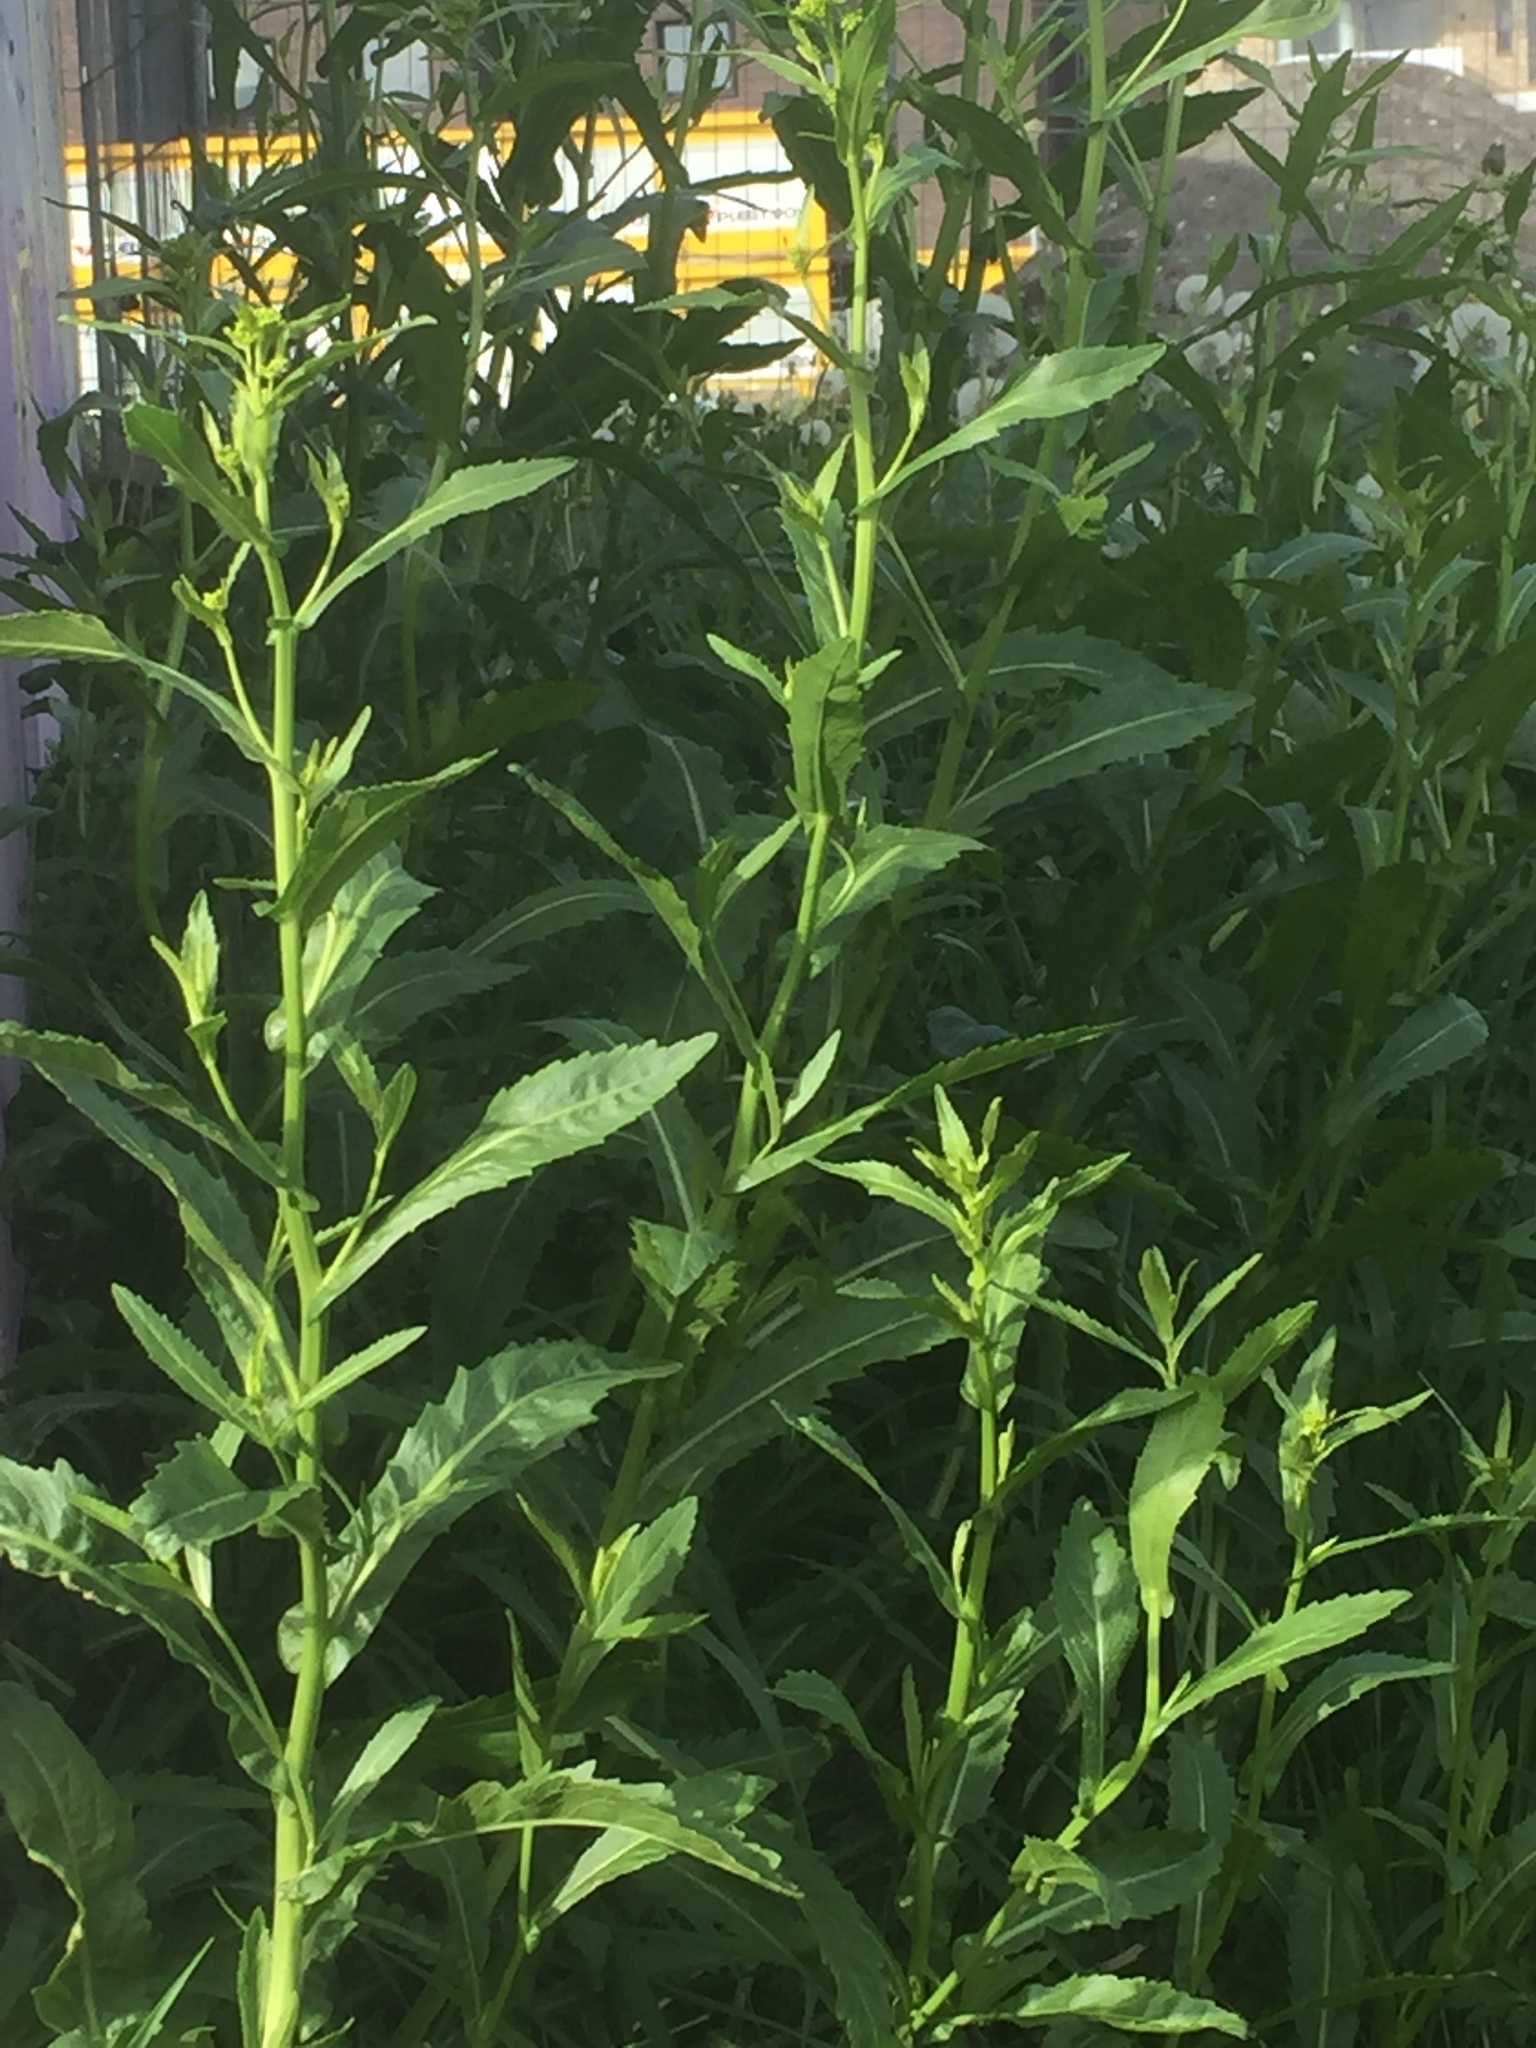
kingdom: Plantae
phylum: Tracheophyta
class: Magnoliopsida
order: Brassicales
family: Brassicaceae
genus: Rorippa
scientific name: Rorippa austriaca
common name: Austrian yellow-cress
